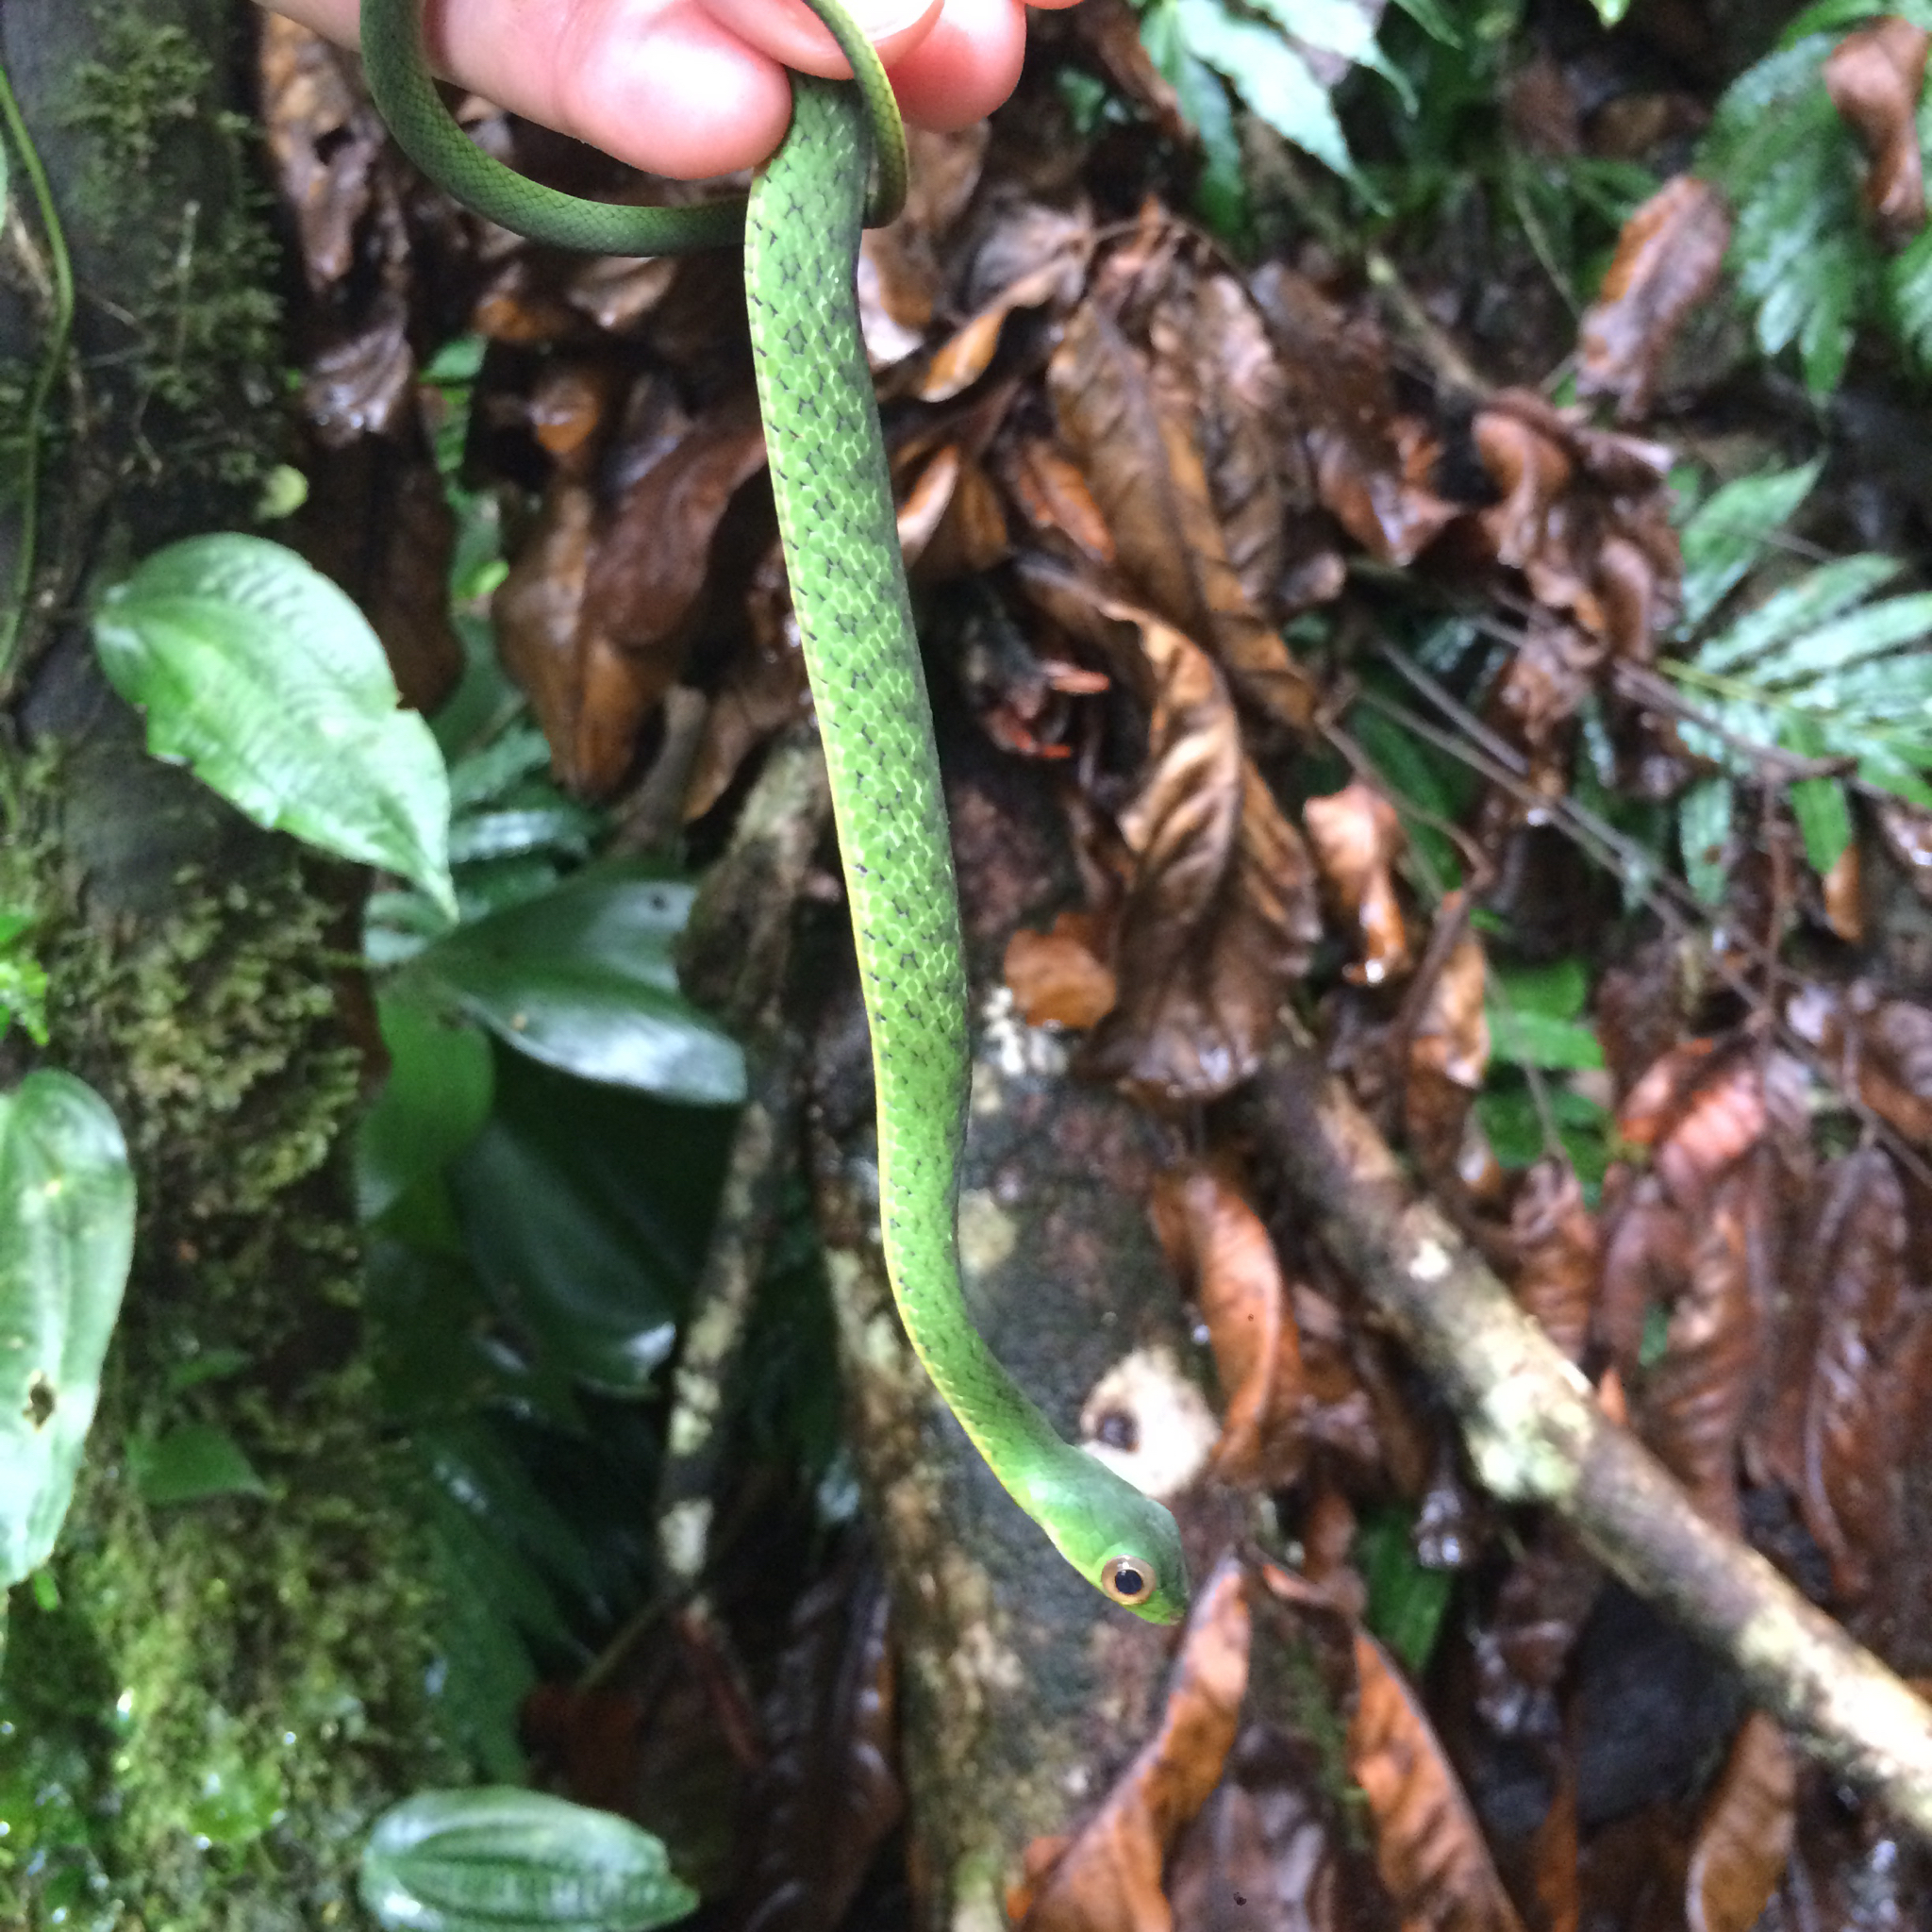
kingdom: Animalia
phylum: Chordata
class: Squamata
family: Colubridae
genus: Drymobius
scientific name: Drymobius melanotropis
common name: Black forest racer
